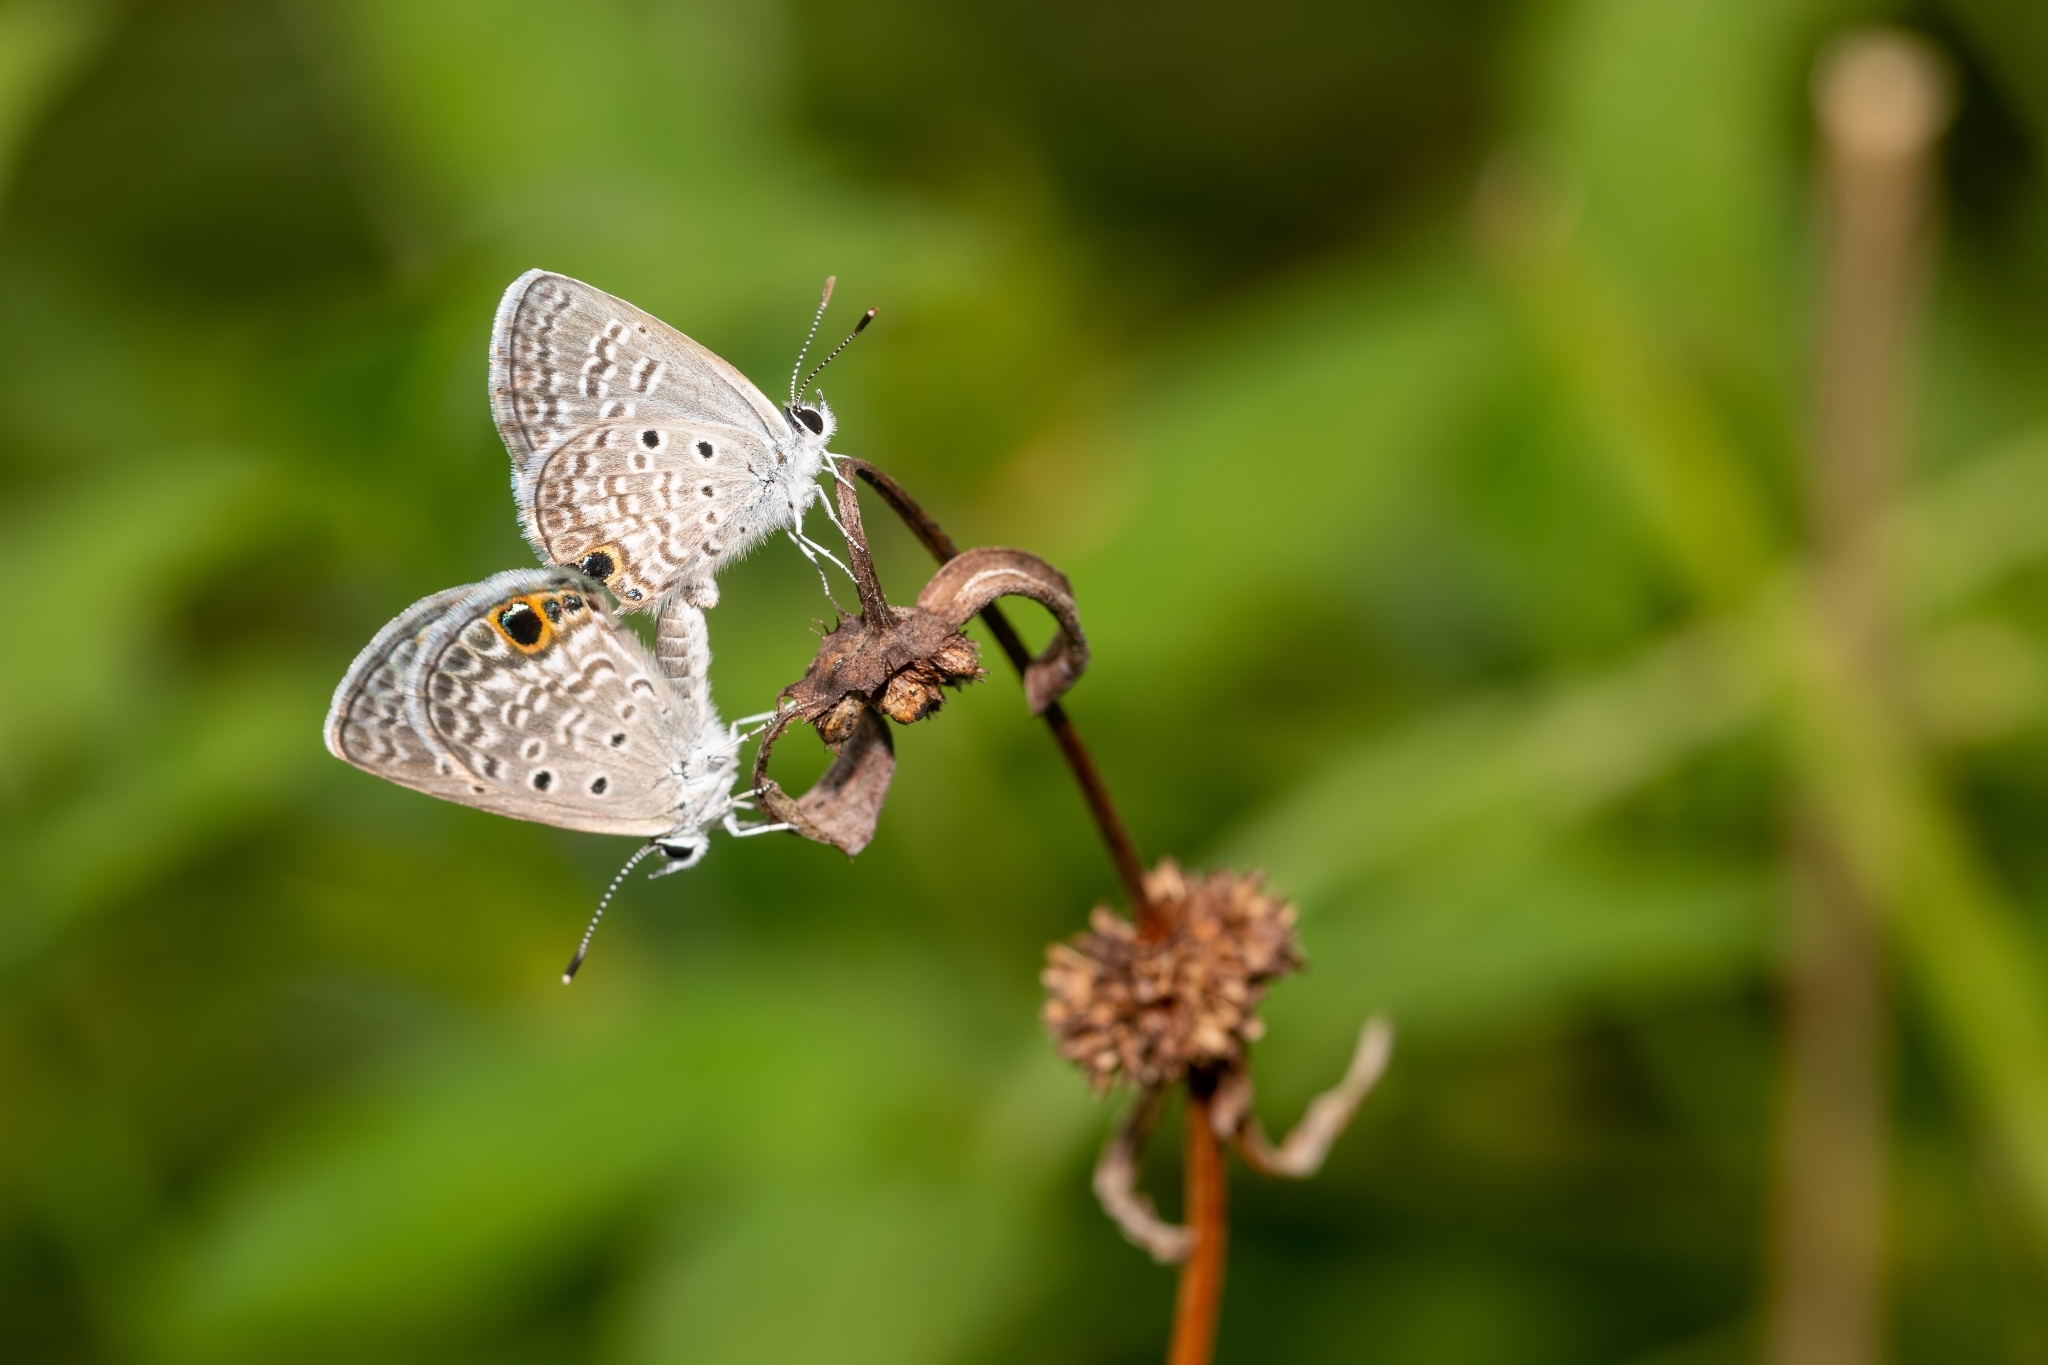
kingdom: Animalia
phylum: Arthropoda
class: Insecta
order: Lepidoptera
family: Lycaenidae
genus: Hemiargus
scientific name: Hemiargus ceraunus
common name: Ceraunus blue
